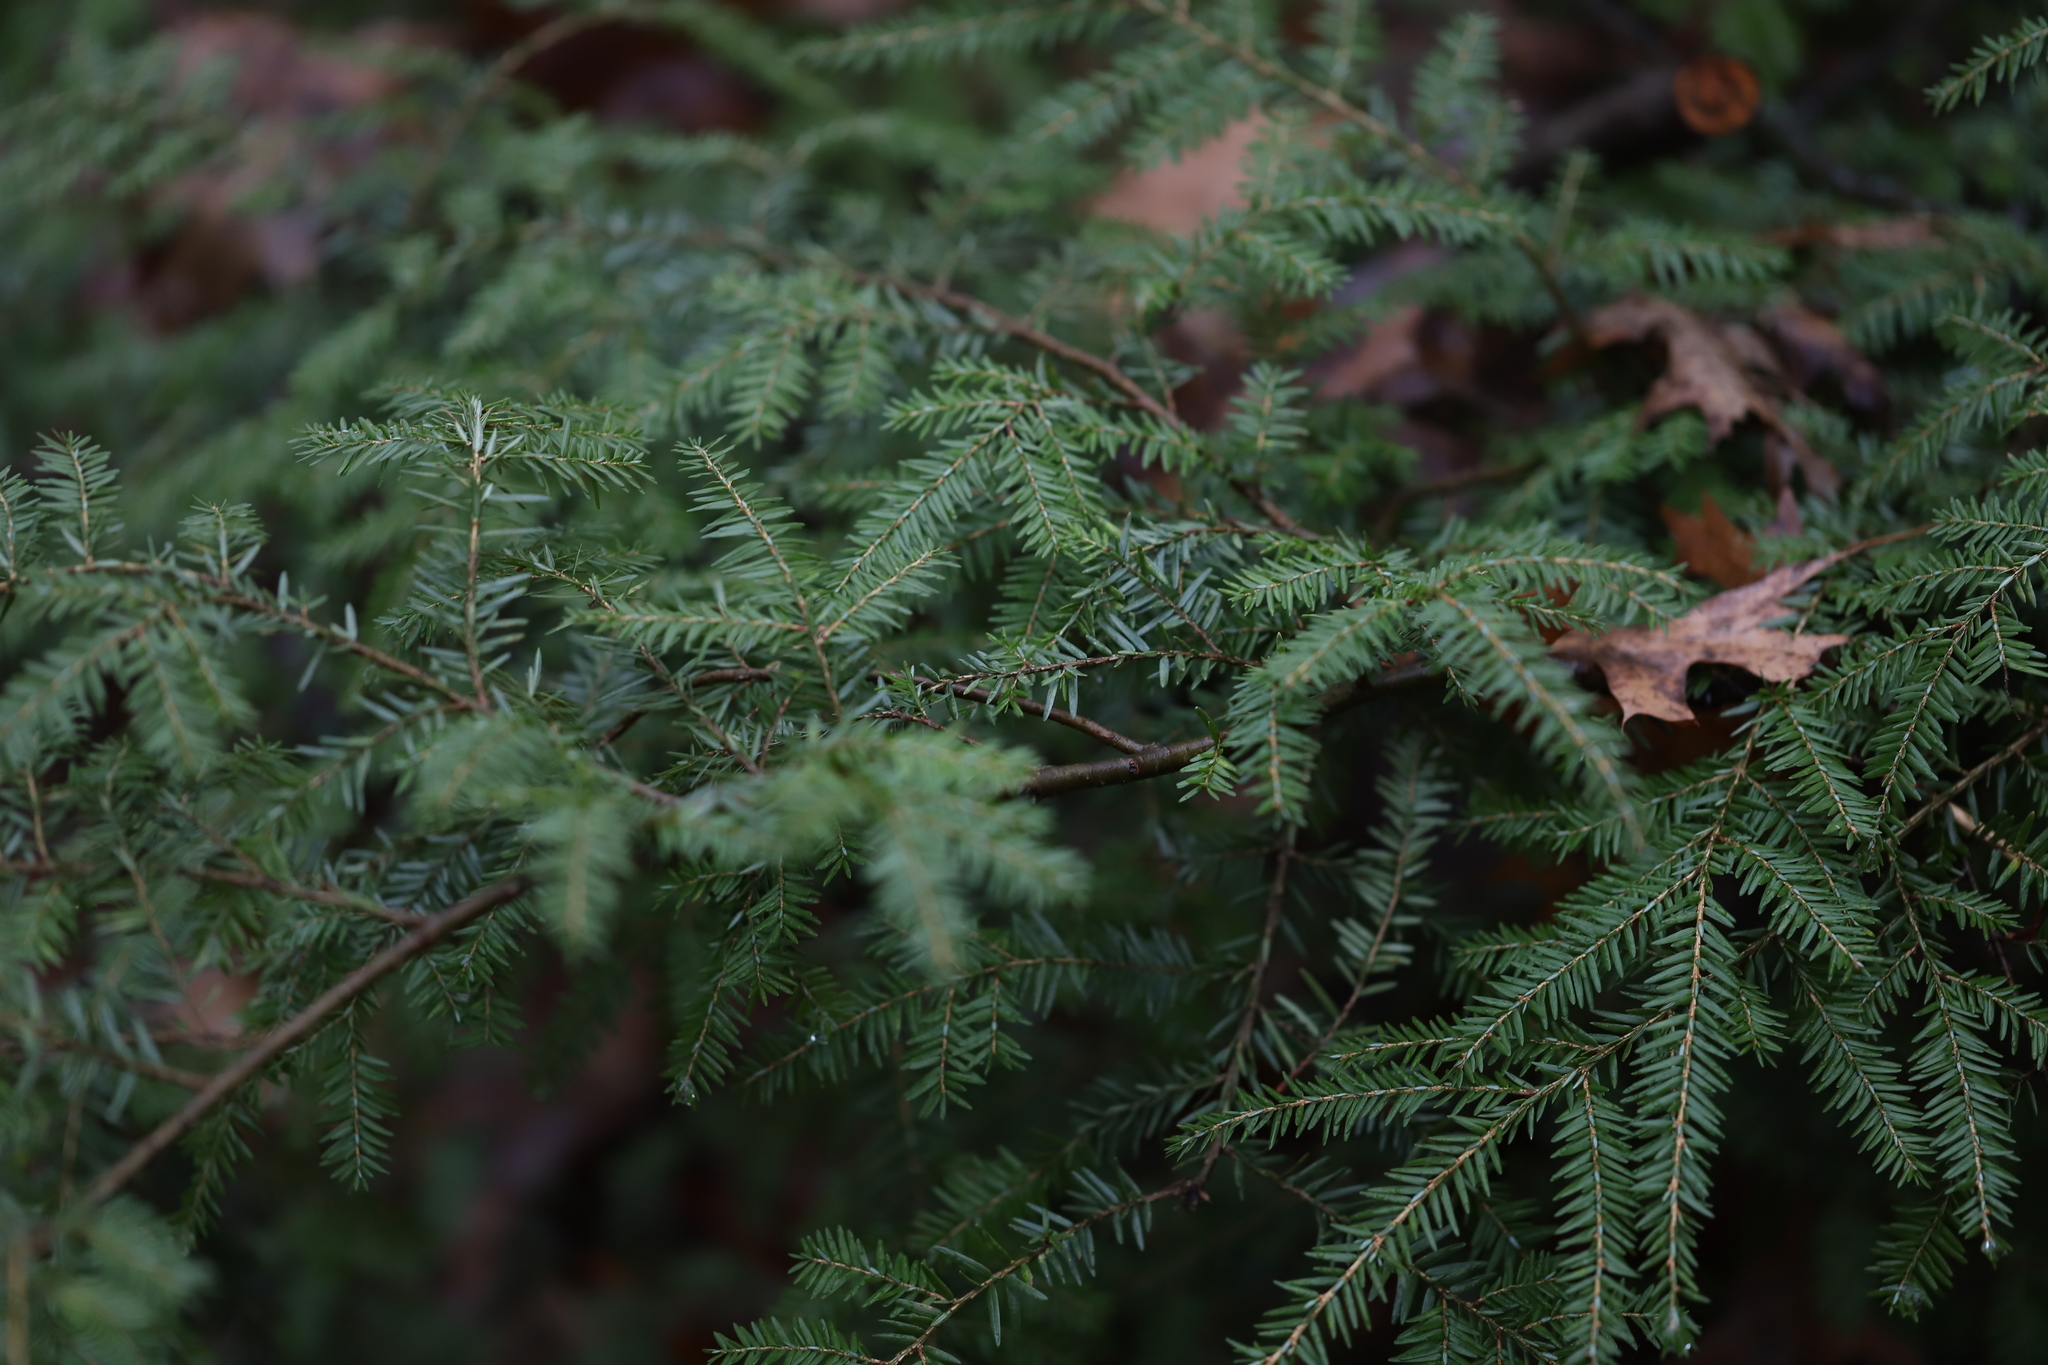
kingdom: Plantae
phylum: Tracheophyta
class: Pinopsida
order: Pinales
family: Pinaceae
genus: Tsuga
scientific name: Tsuga canadensis
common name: Eastern hemlock
